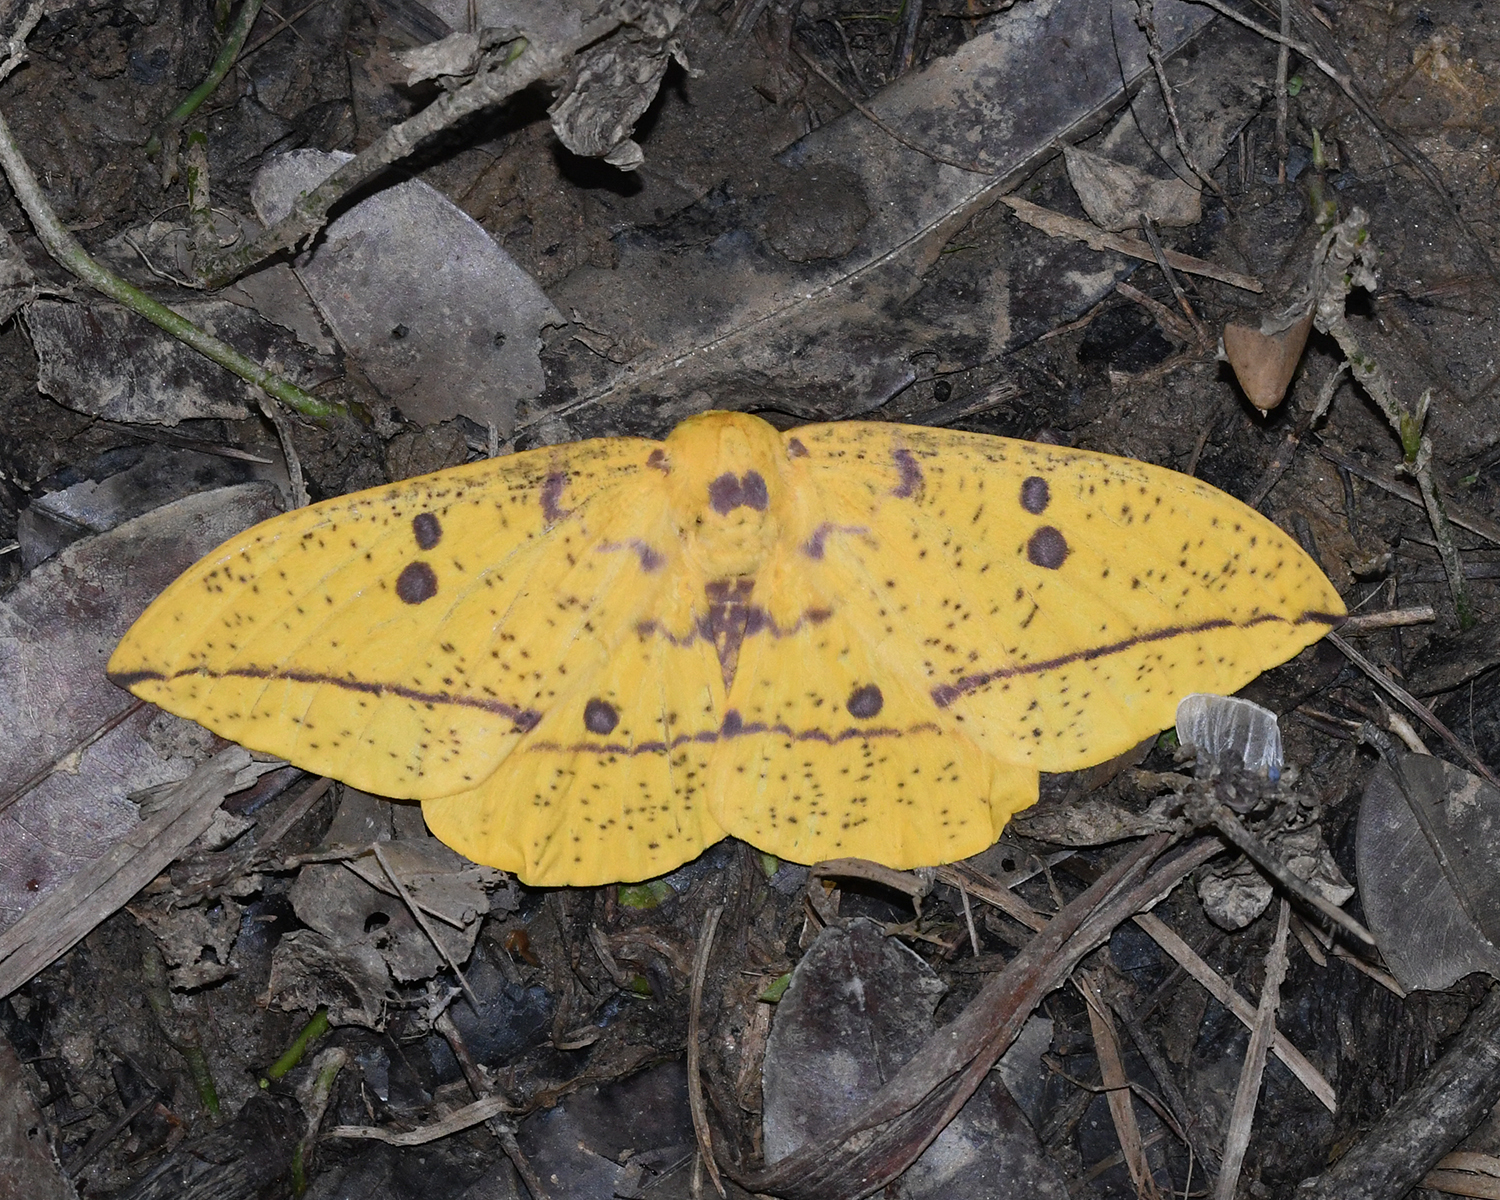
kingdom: Animalia
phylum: Arthropoda
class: Insecta
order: Lepidoptera
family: Saturniidae
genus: Eacles
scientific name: Eacles imperialis
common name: Imperial moth
